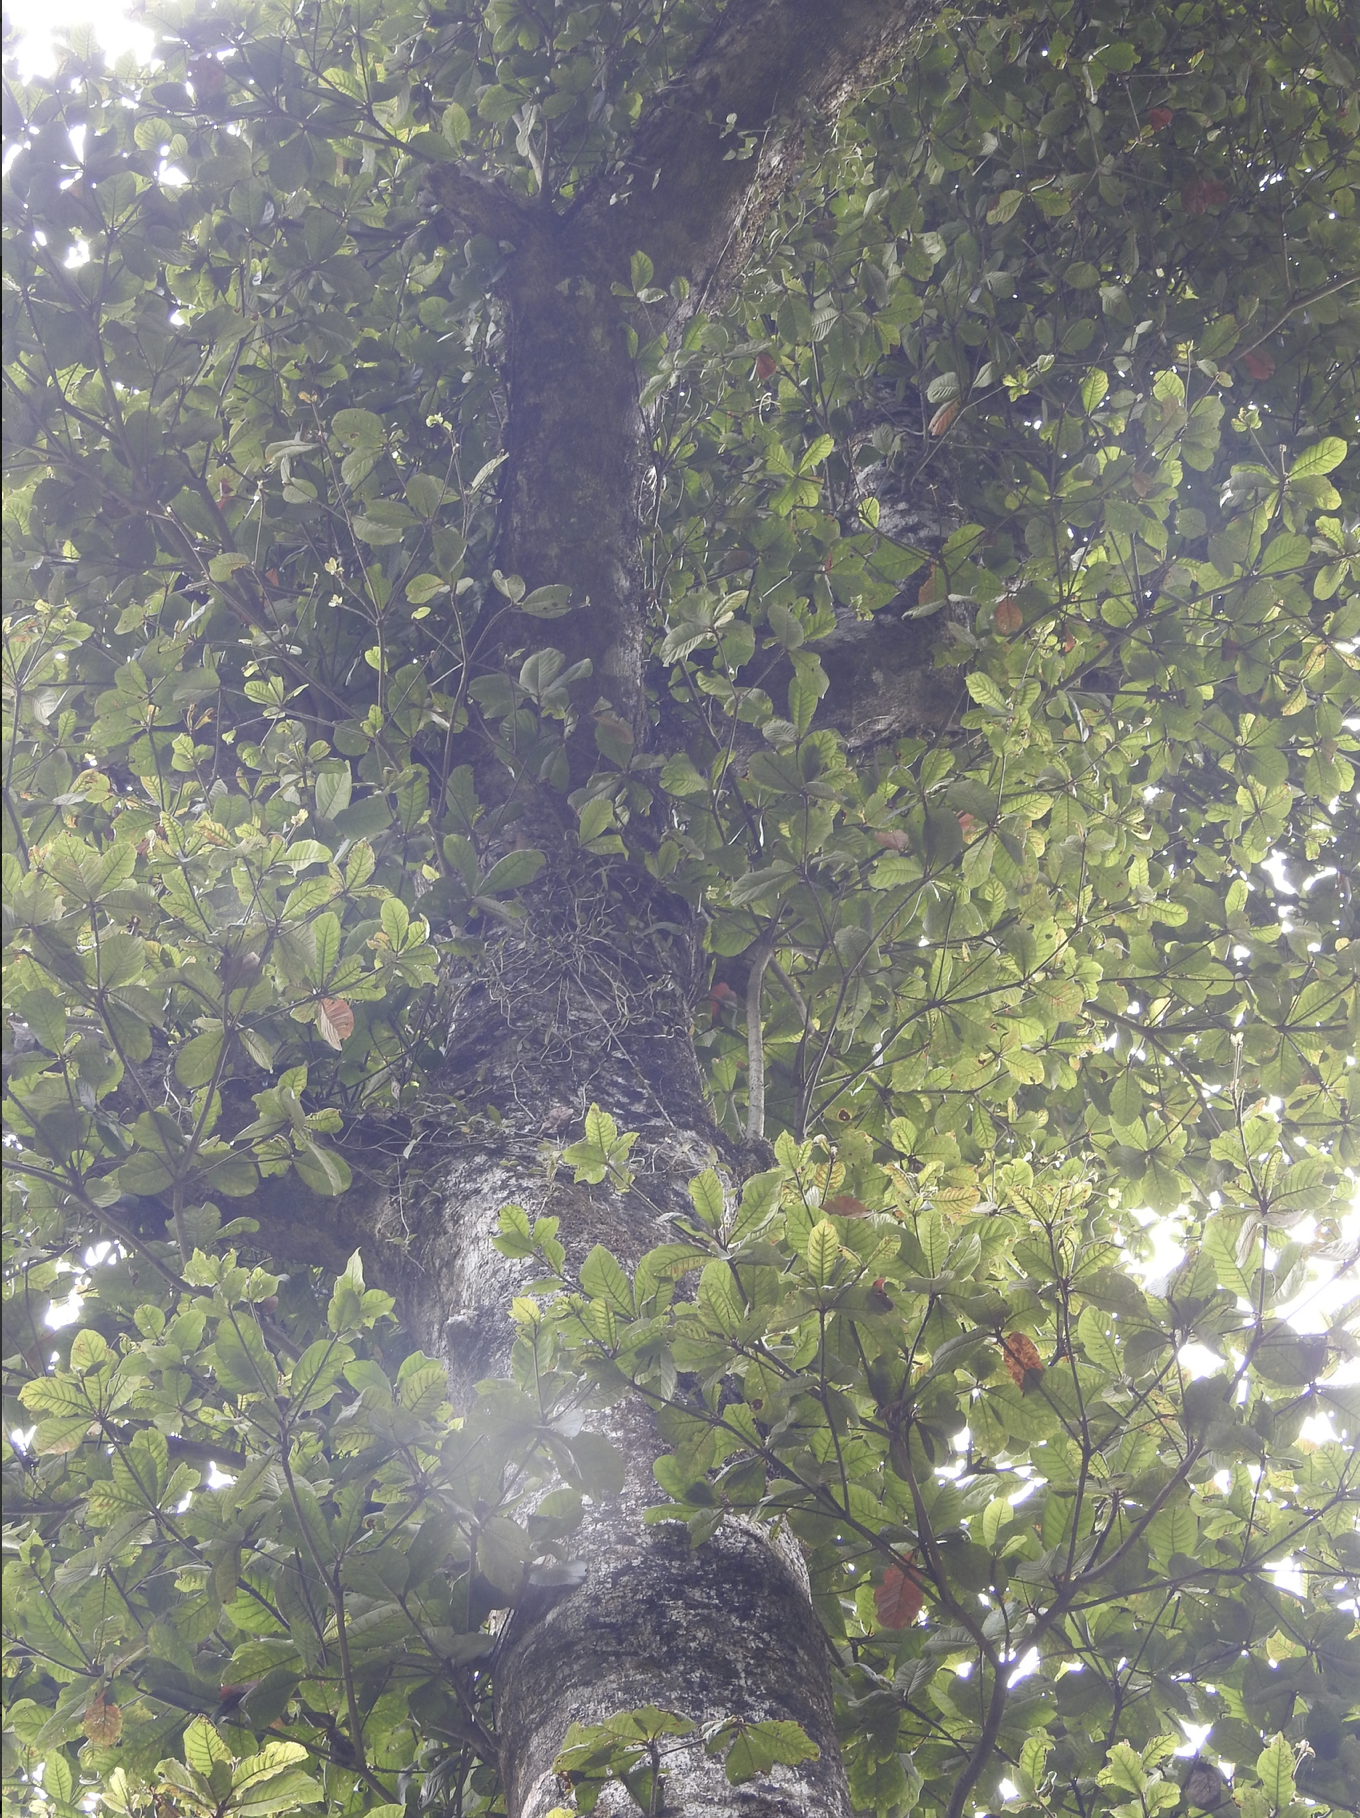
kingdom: Plantae
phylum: Tracheophyta
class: Magnoliopsida
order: Oxalidales
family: Elaeocarpaceae
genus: Elaeocarpus
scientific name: Elaeocarpus tuberculatus
